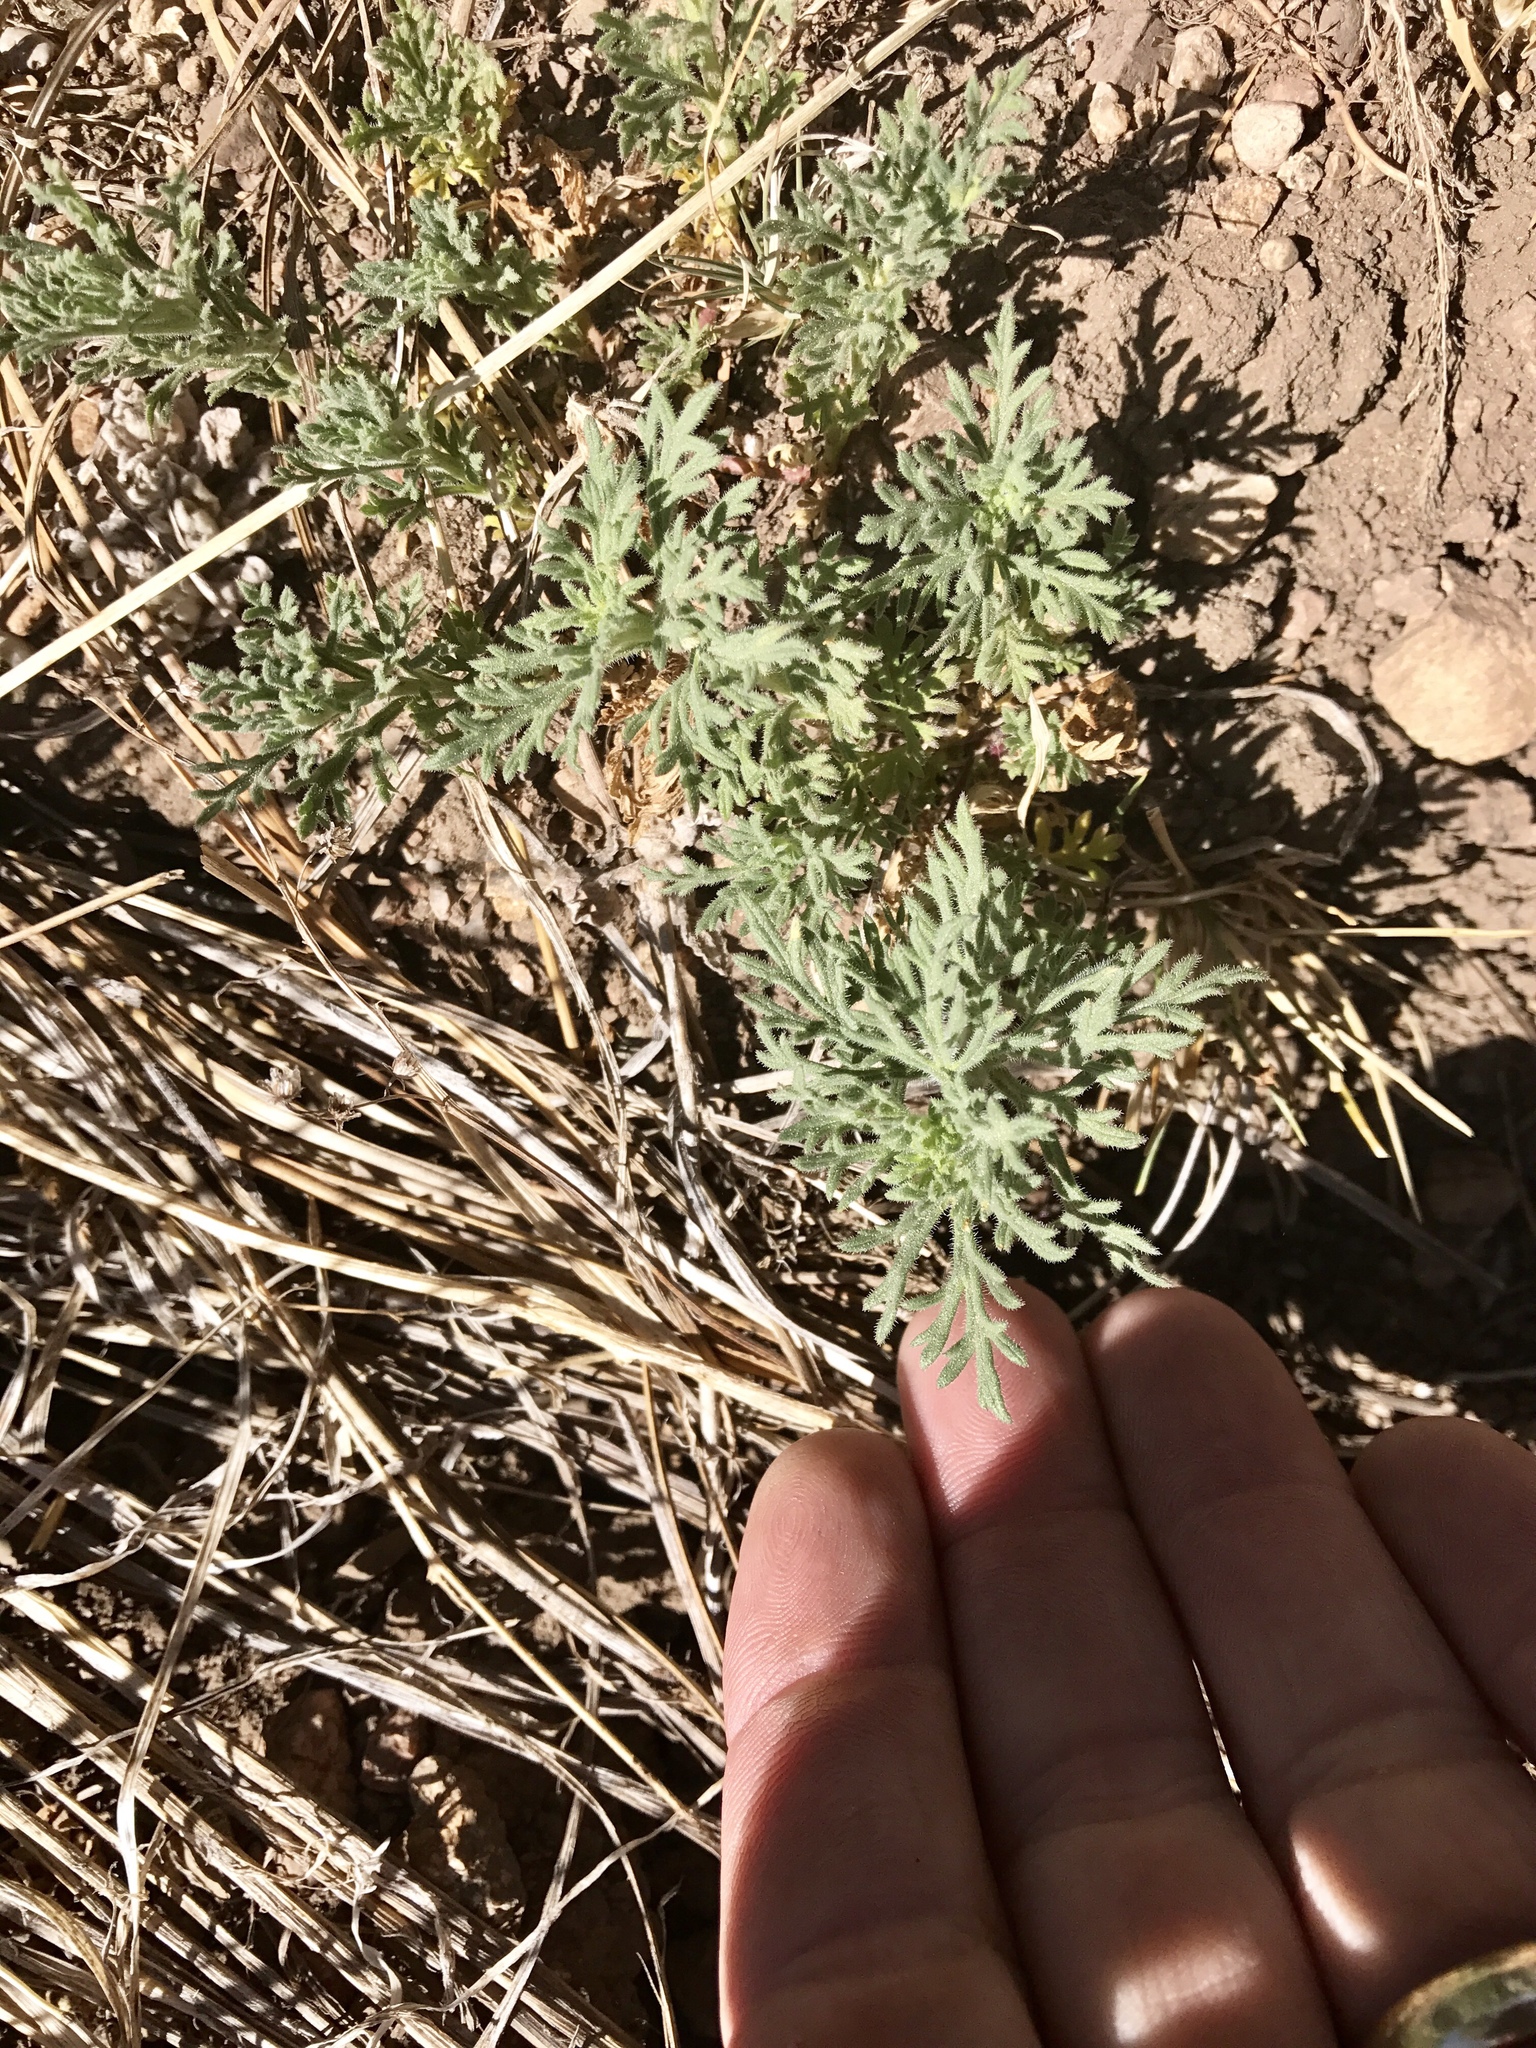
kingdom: Plantae
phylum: Tracheophyta
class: Magnoliopsida
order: Asterales
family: Asteraceae
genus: Ambrosia
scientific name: Ambrosia psilostachya
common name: Perennial ragweed
